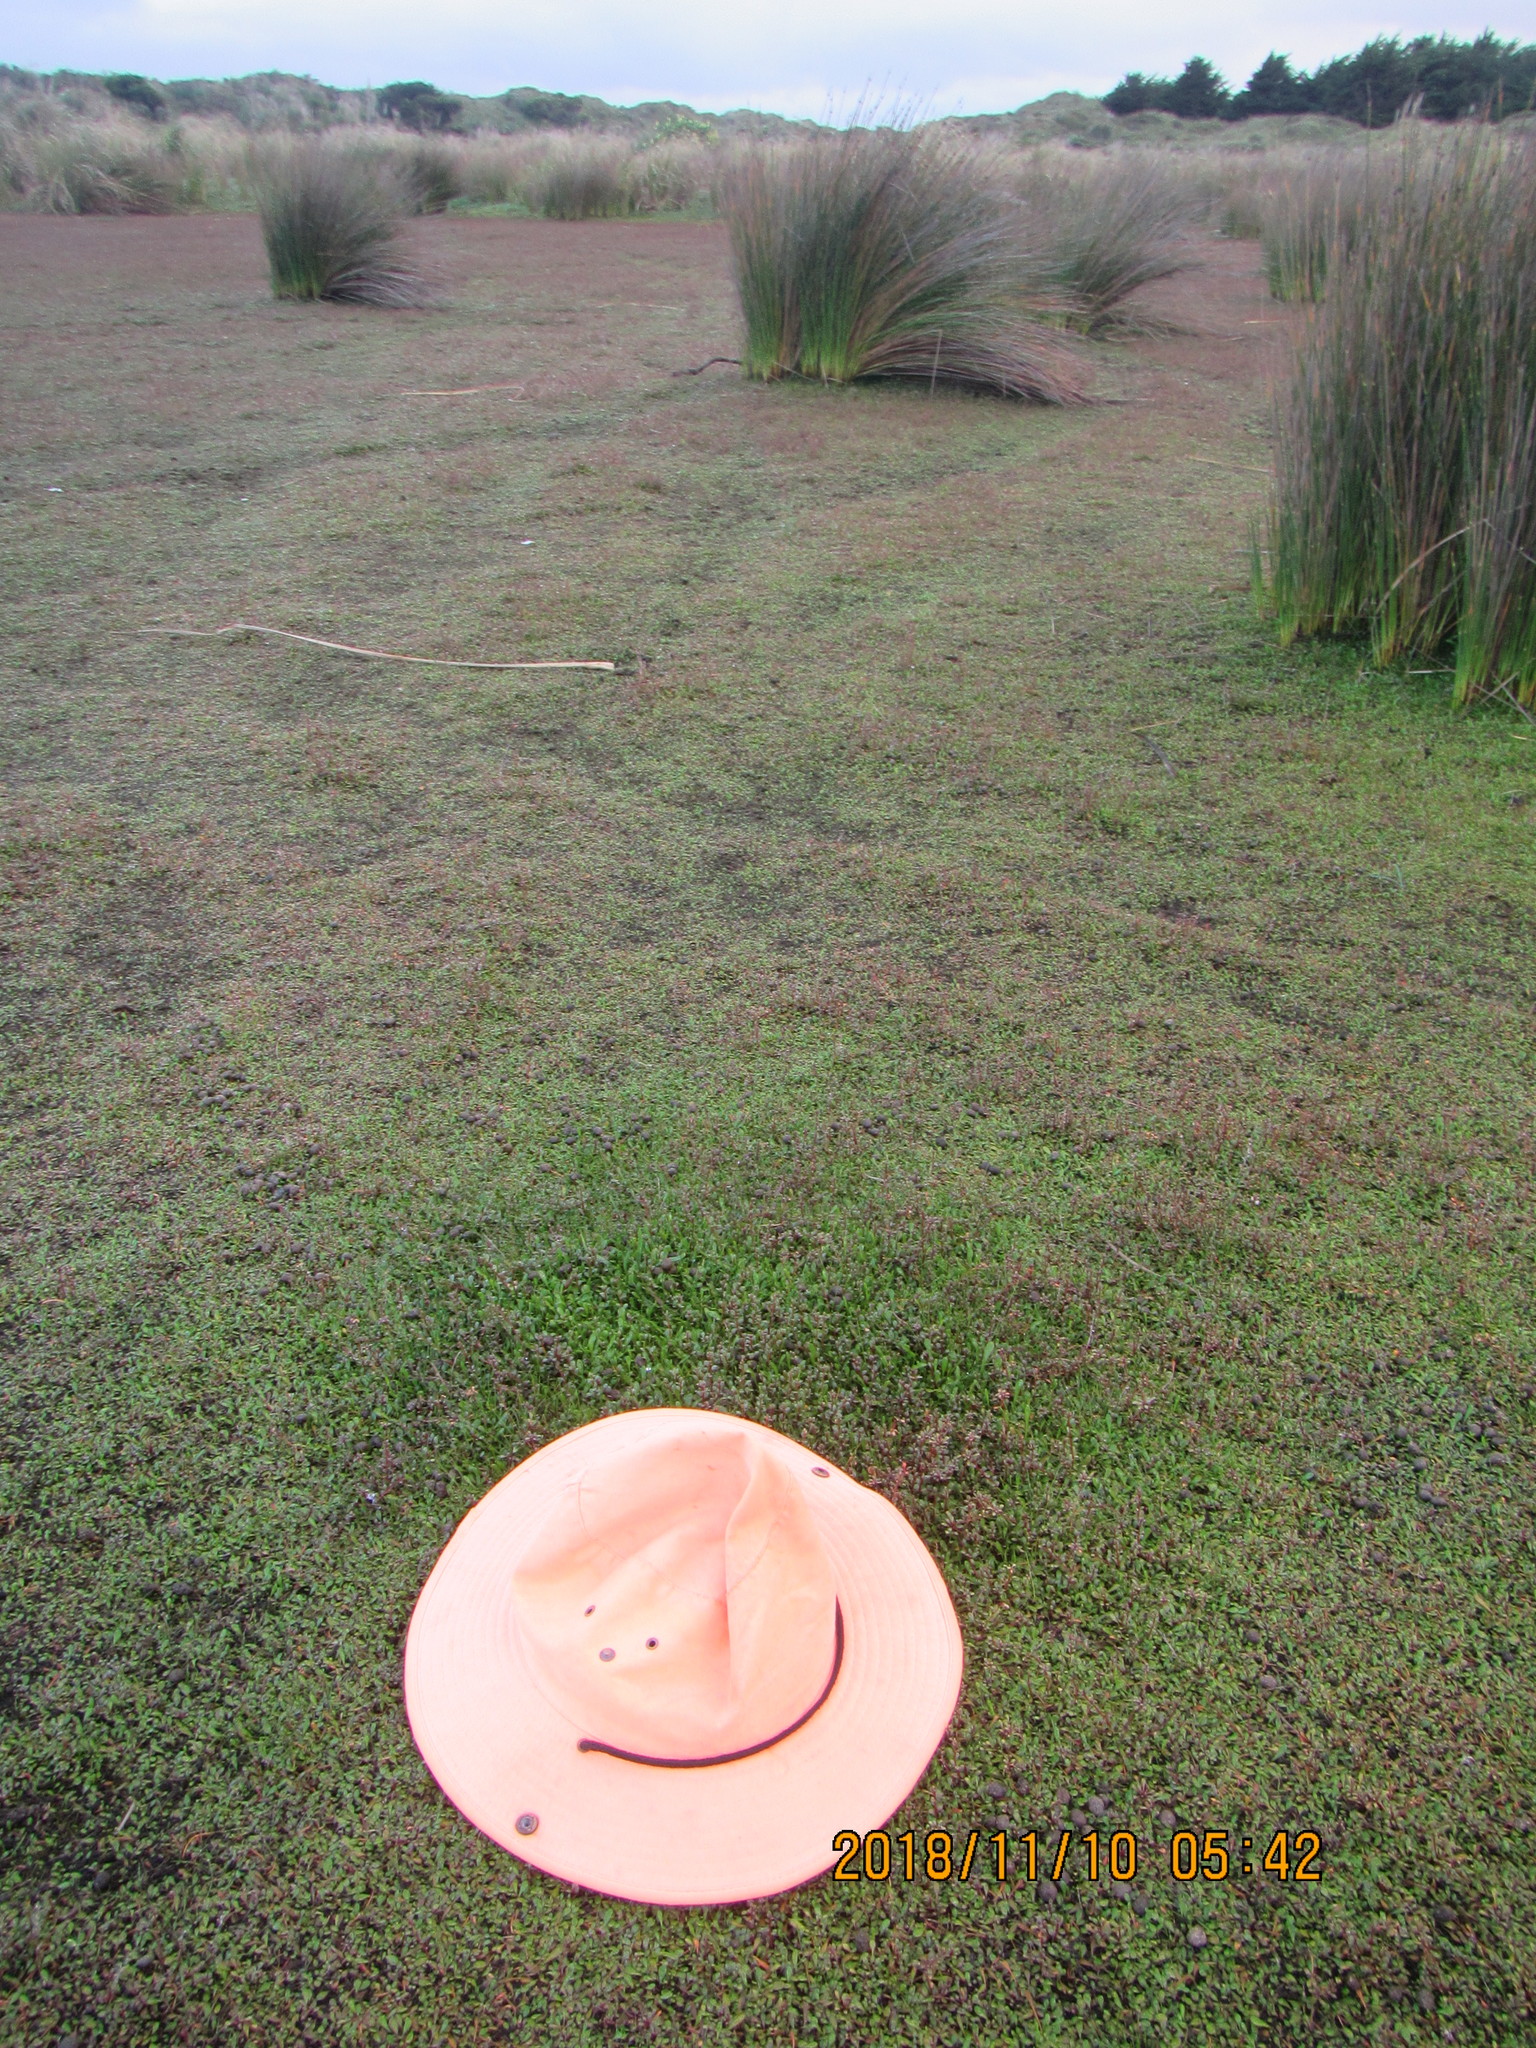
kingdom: Plantae
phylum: Tracheophyta
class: Magnoliopsida
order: Asterales
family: Goodeniaceae
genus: Goodenia
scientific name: Goodenia radicans
